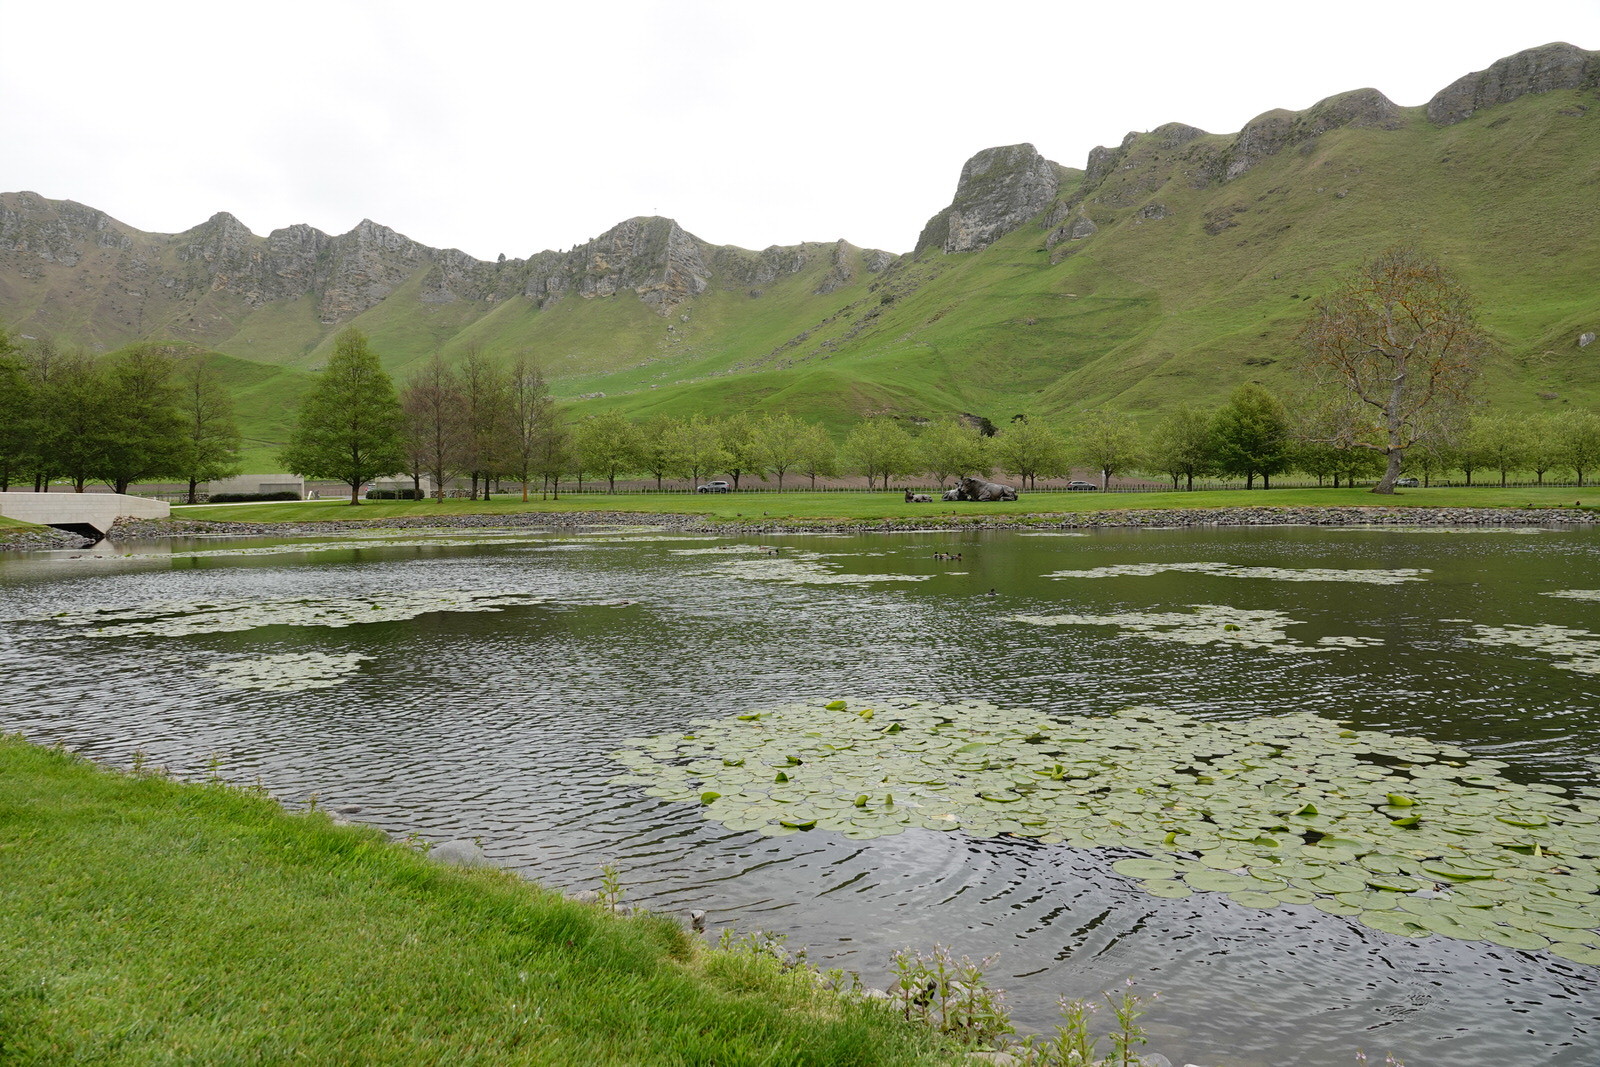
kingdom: Animalia
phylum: Chordata
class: Aves
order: Anseriformes
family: Anatidae
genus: Anas
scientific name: Anas
